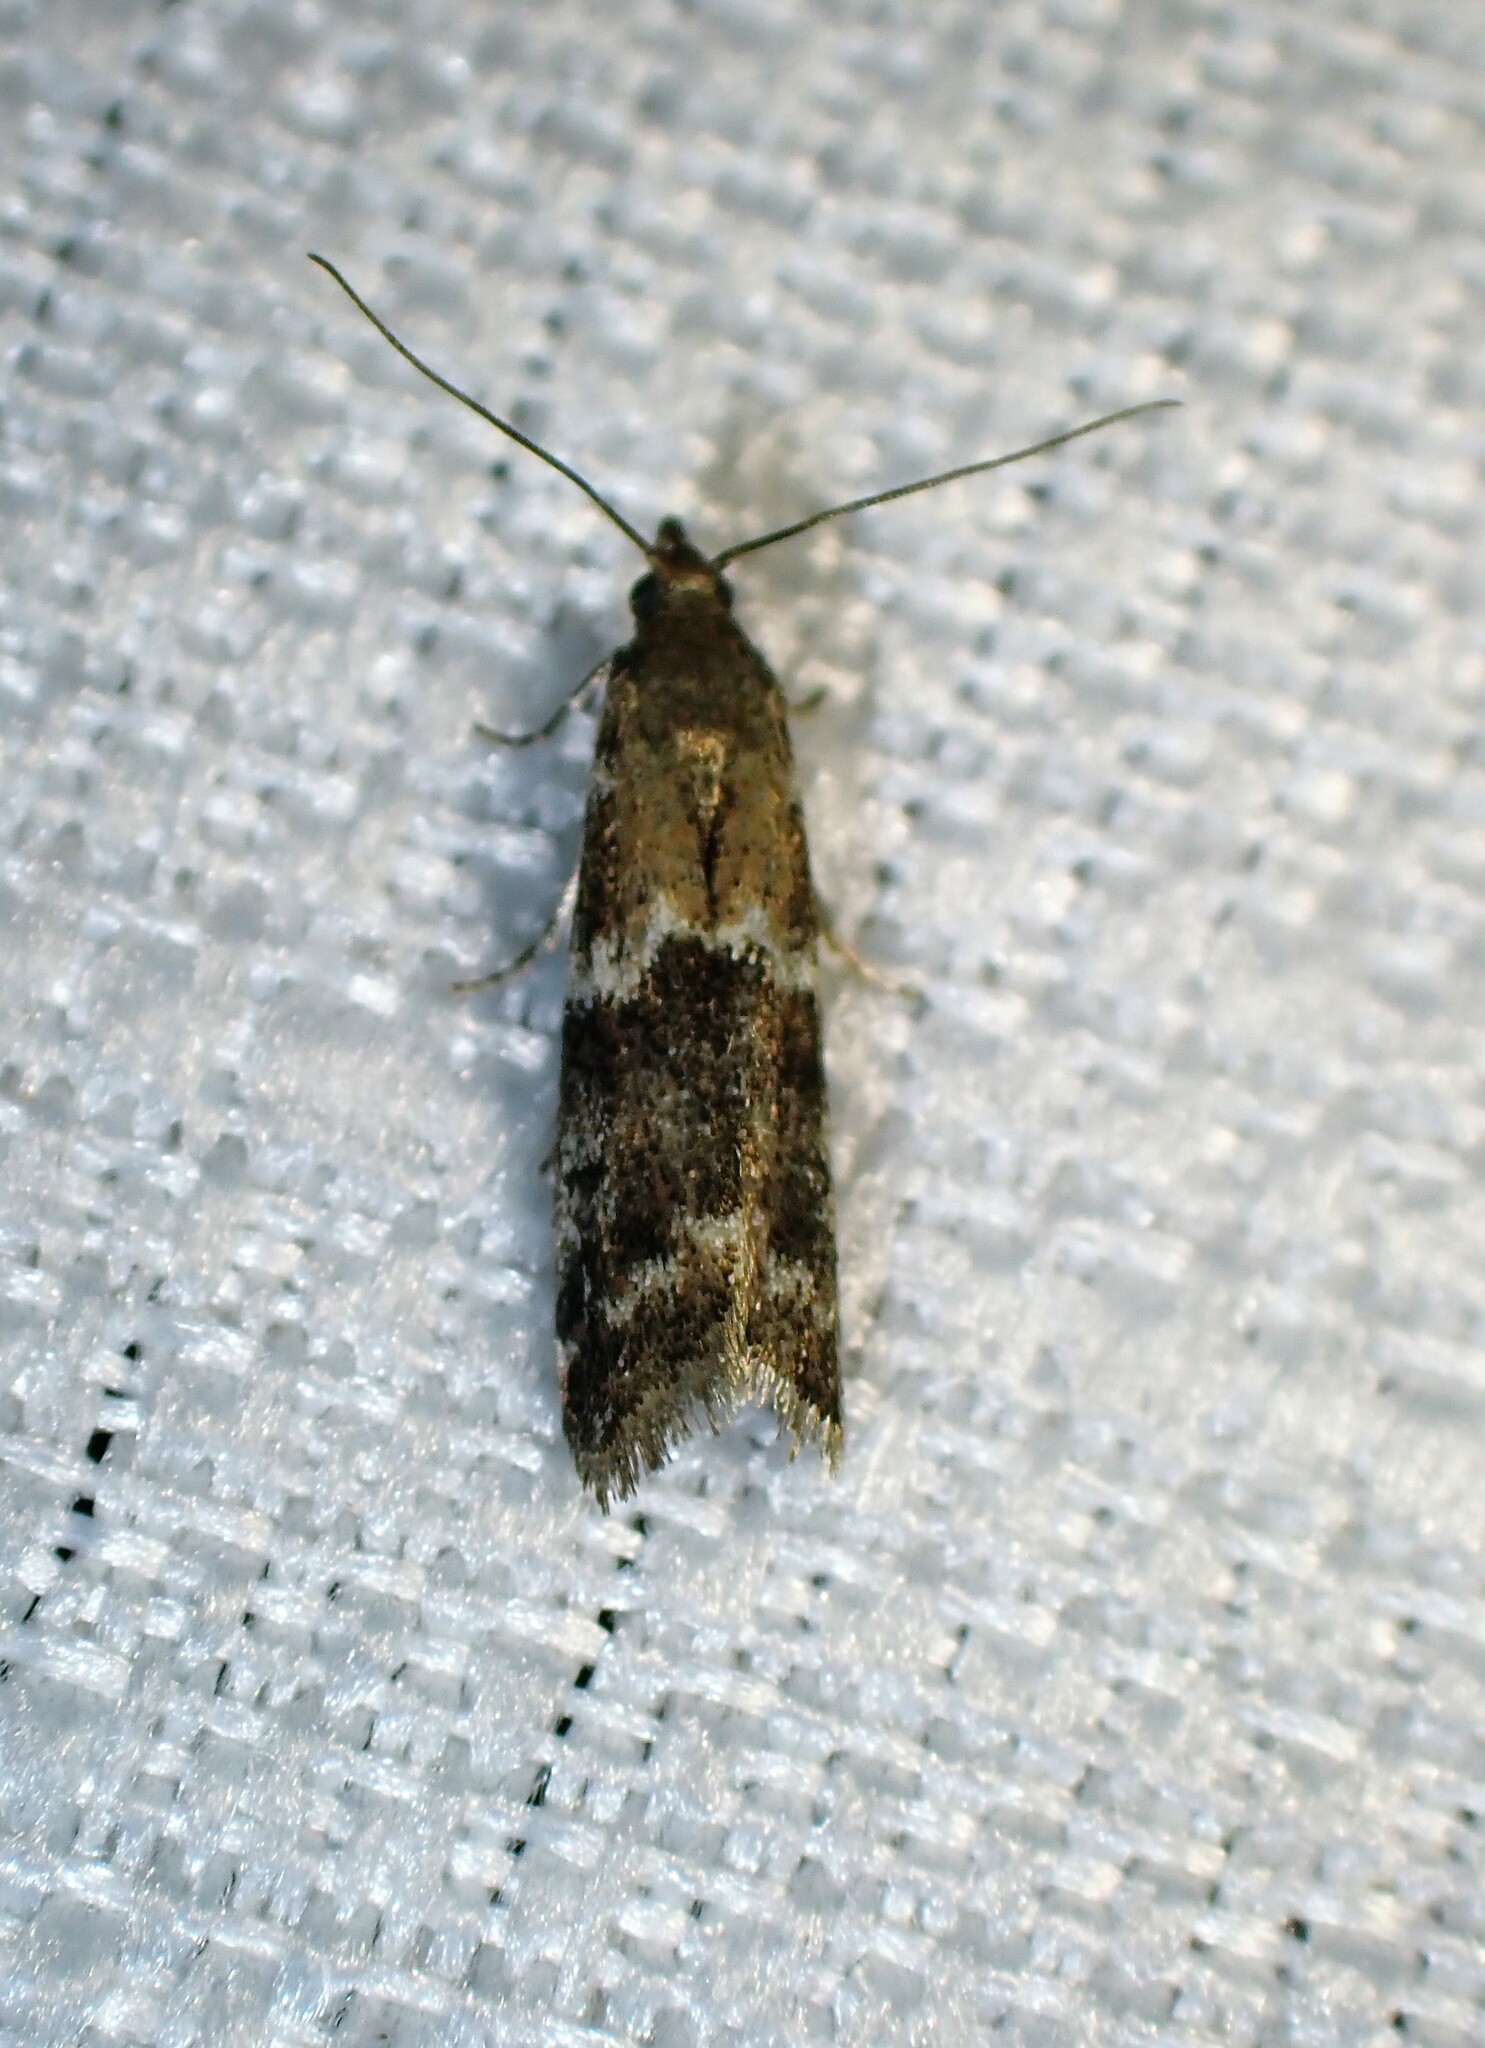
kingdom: Animalia
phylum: Arthropoda
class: Insecta
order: Lepidoptera
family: Pyralidae
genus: Vitula
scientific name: Vitula broweri
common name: Brower's vitula moth
